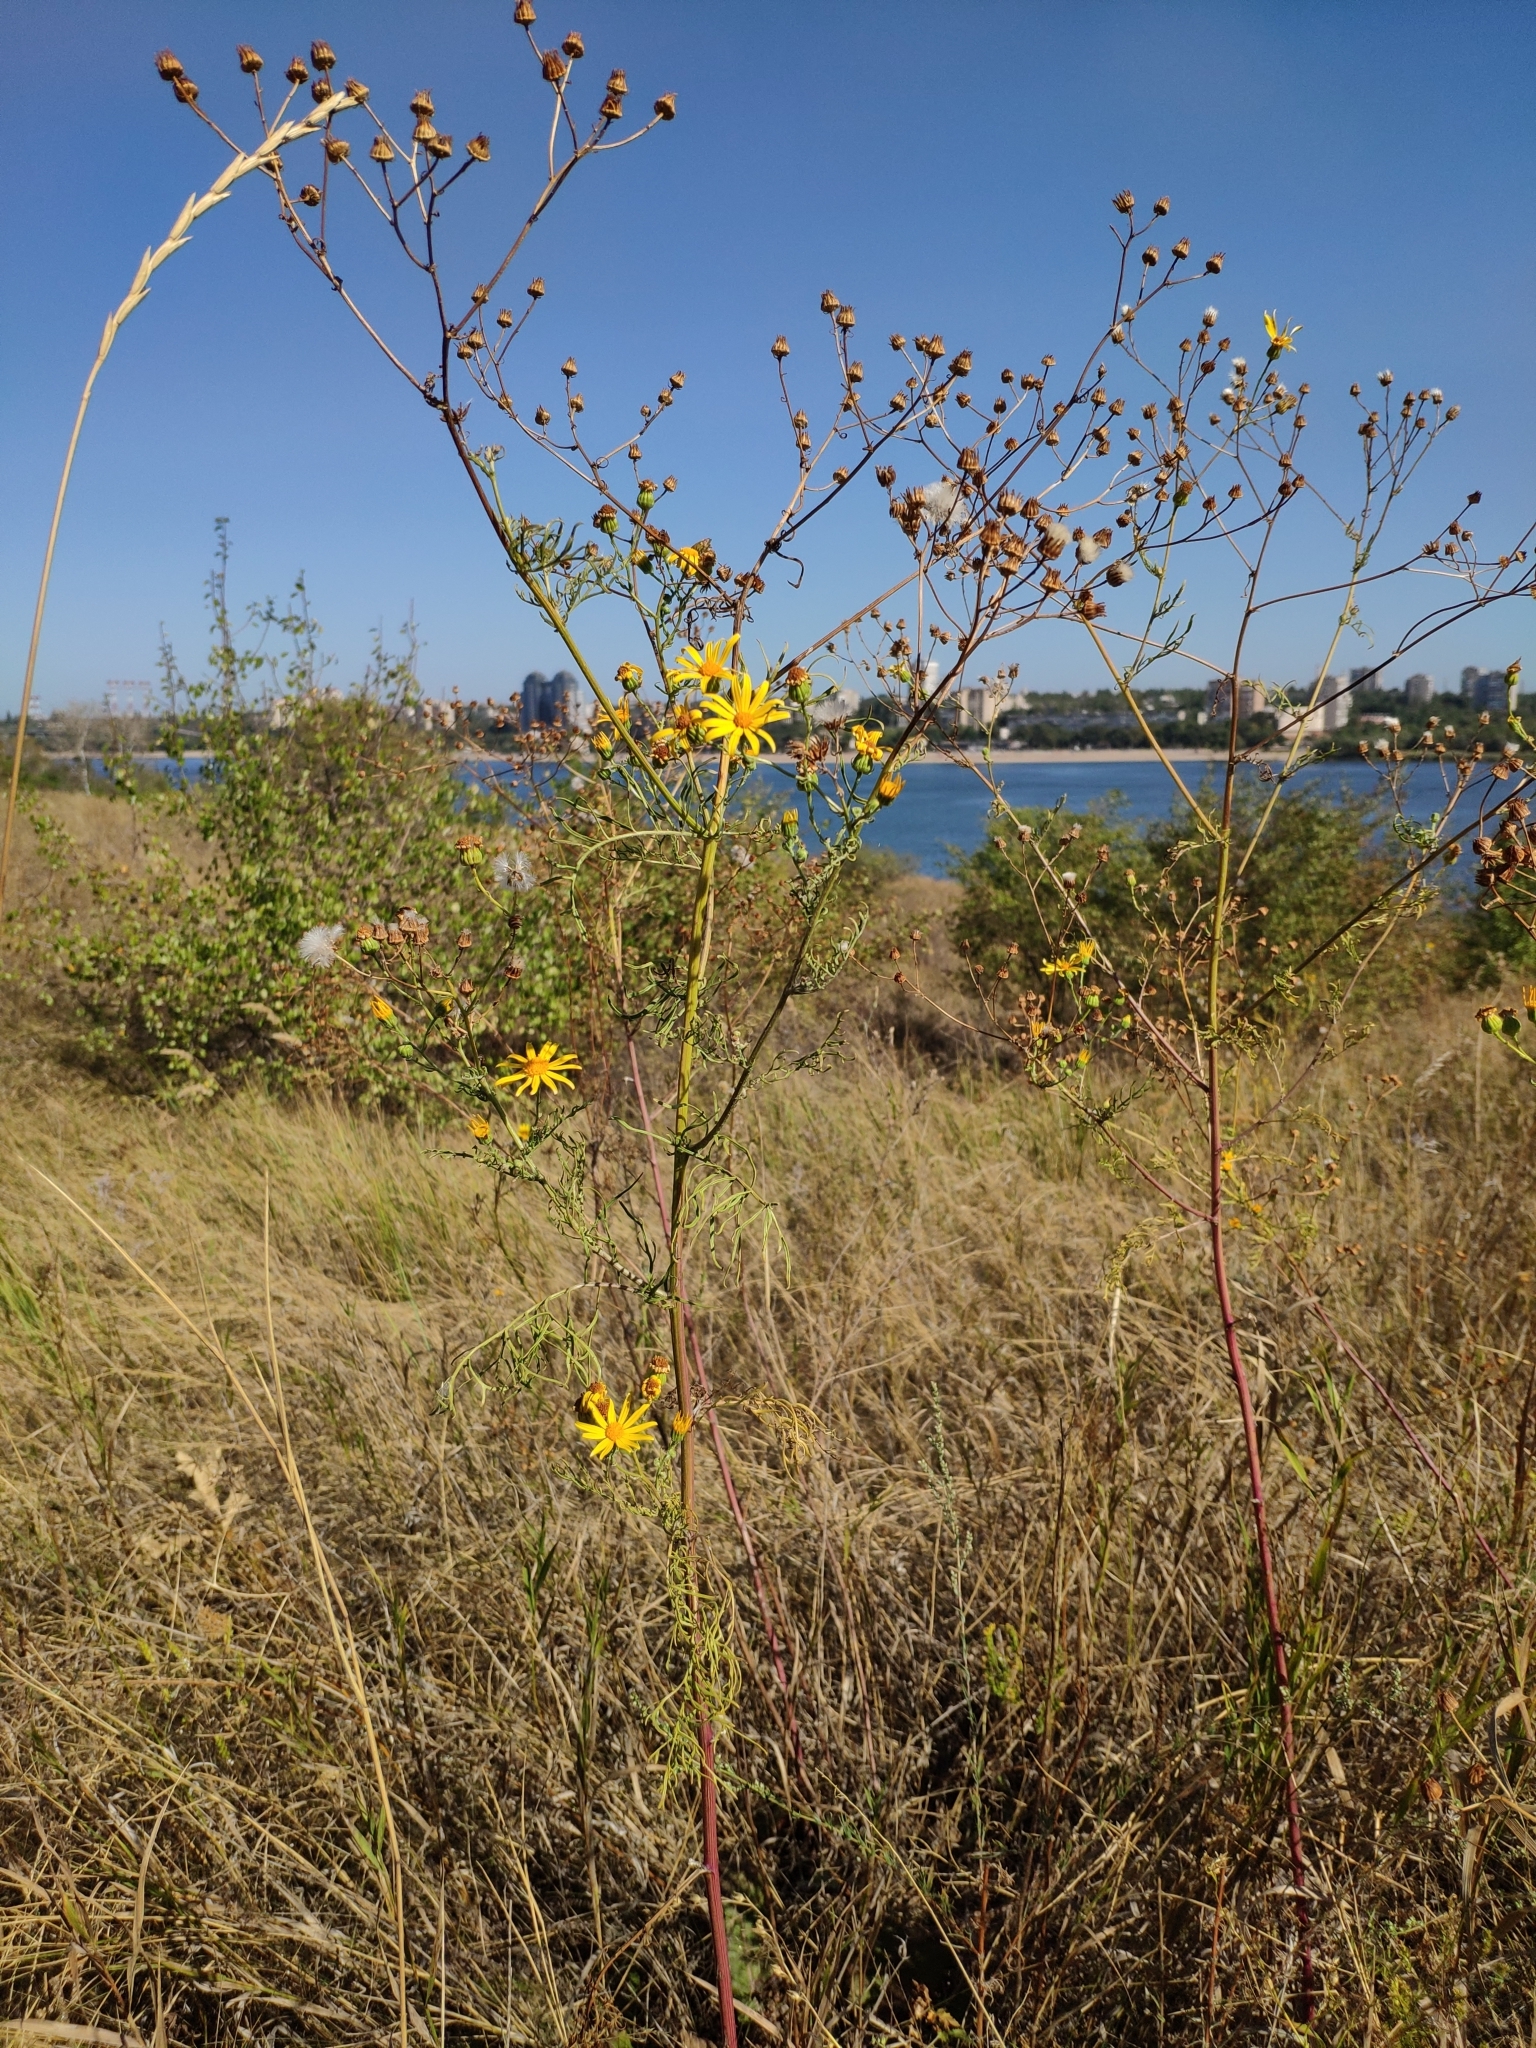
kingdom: Plantae
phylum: Tracheophyta
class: Magnoliopsida
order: Asterales
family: Asteraceae
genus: Jacobaea
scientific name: Jacobaea borysthenica
